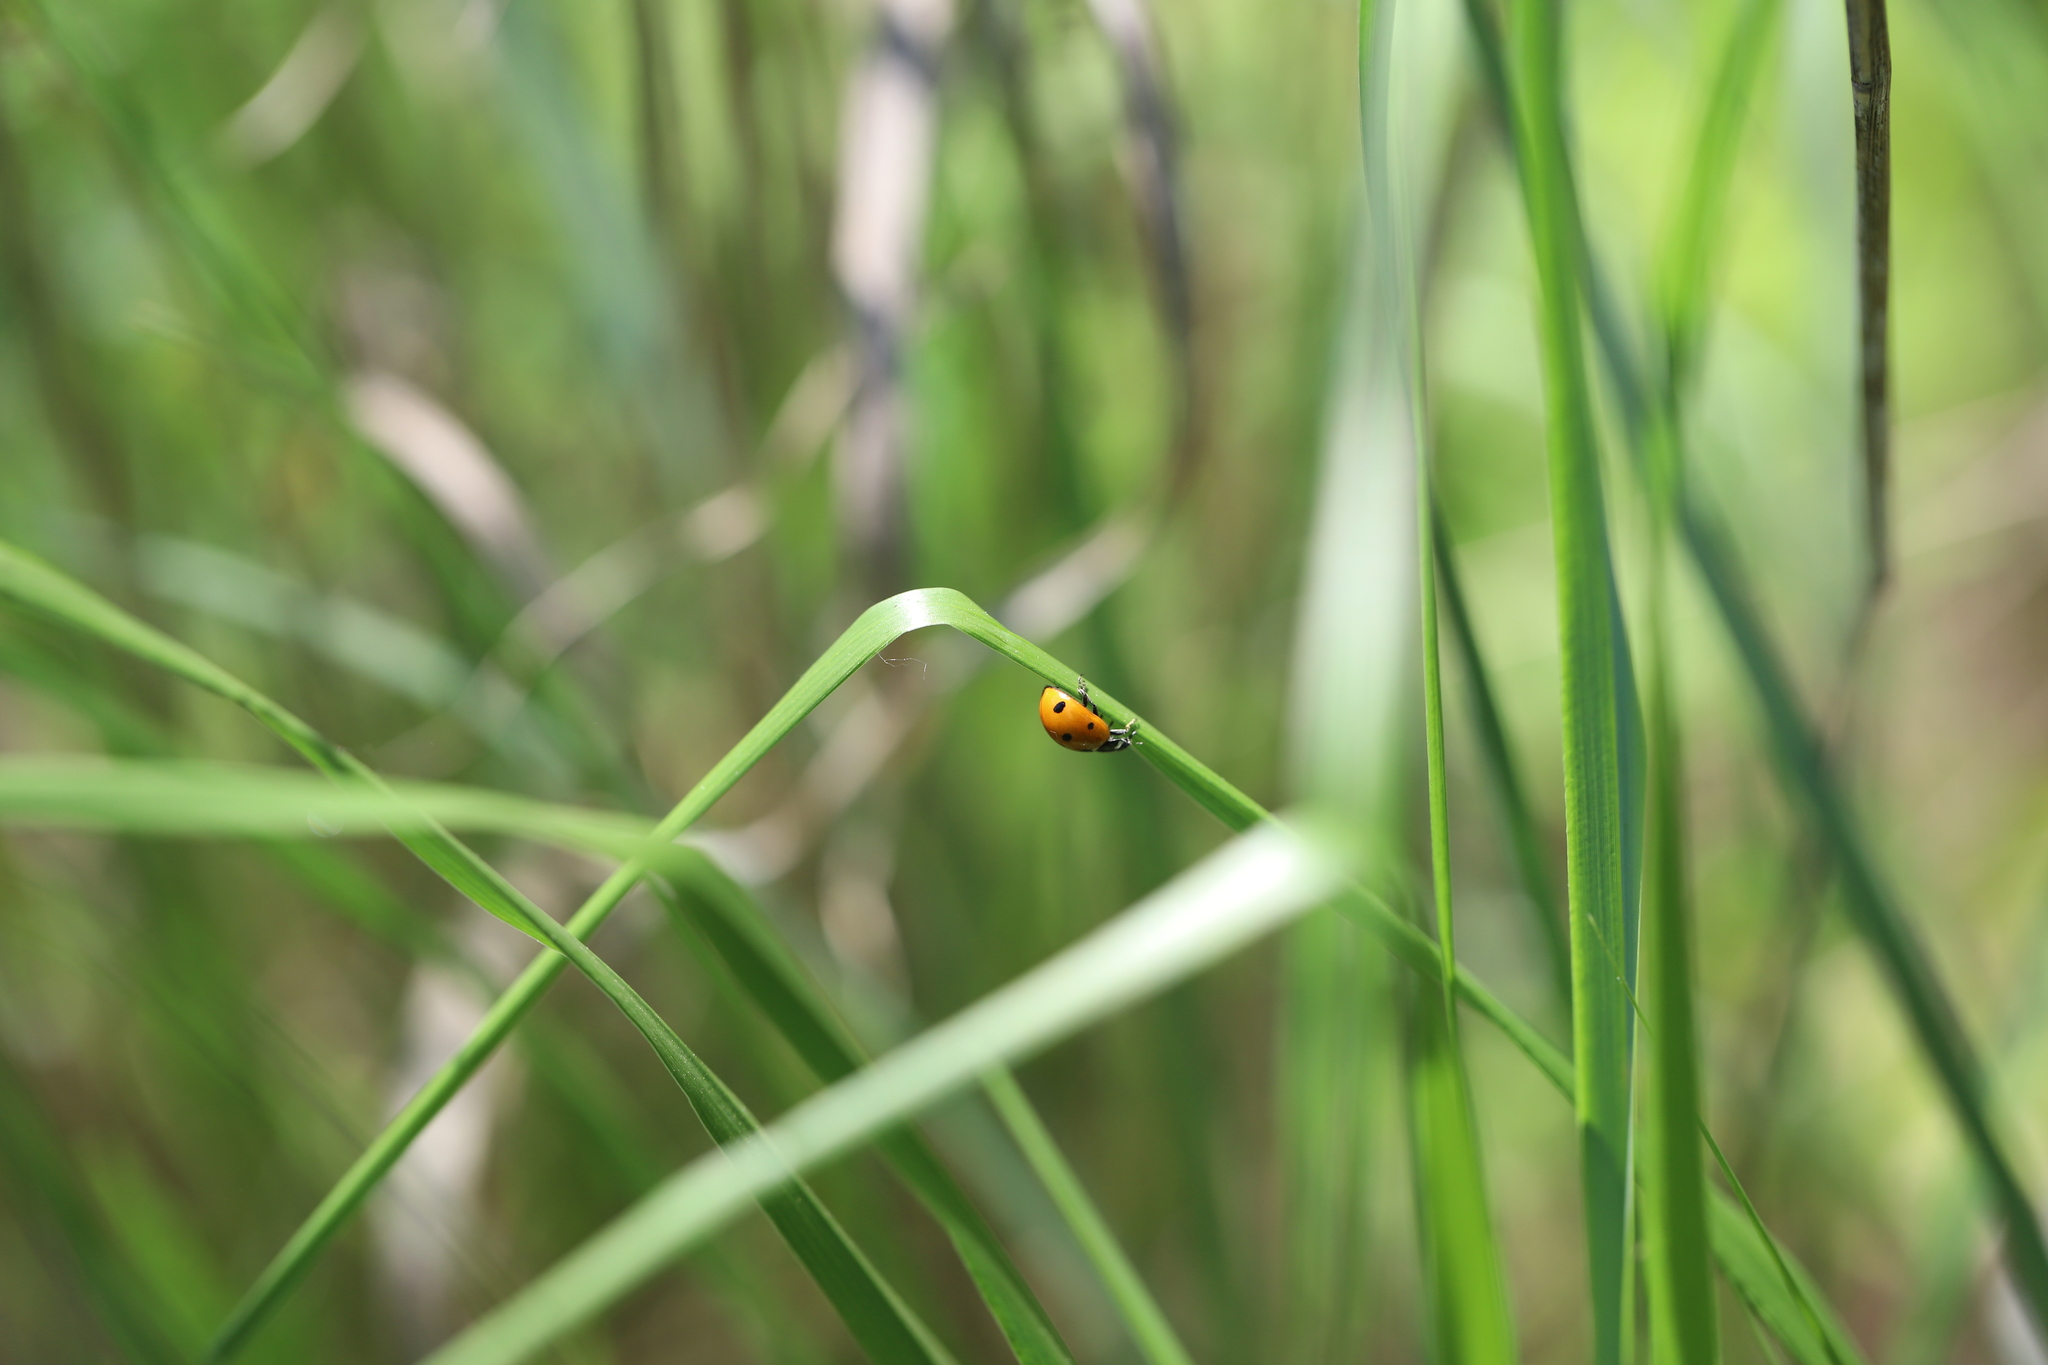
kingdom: Animalia
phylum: Arthropoda
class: Insecta
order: Coleoptera
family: Coccinellidae
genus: Coccinella
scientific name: Coccinella septempunctata
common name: Sevenspotted lady beetle
